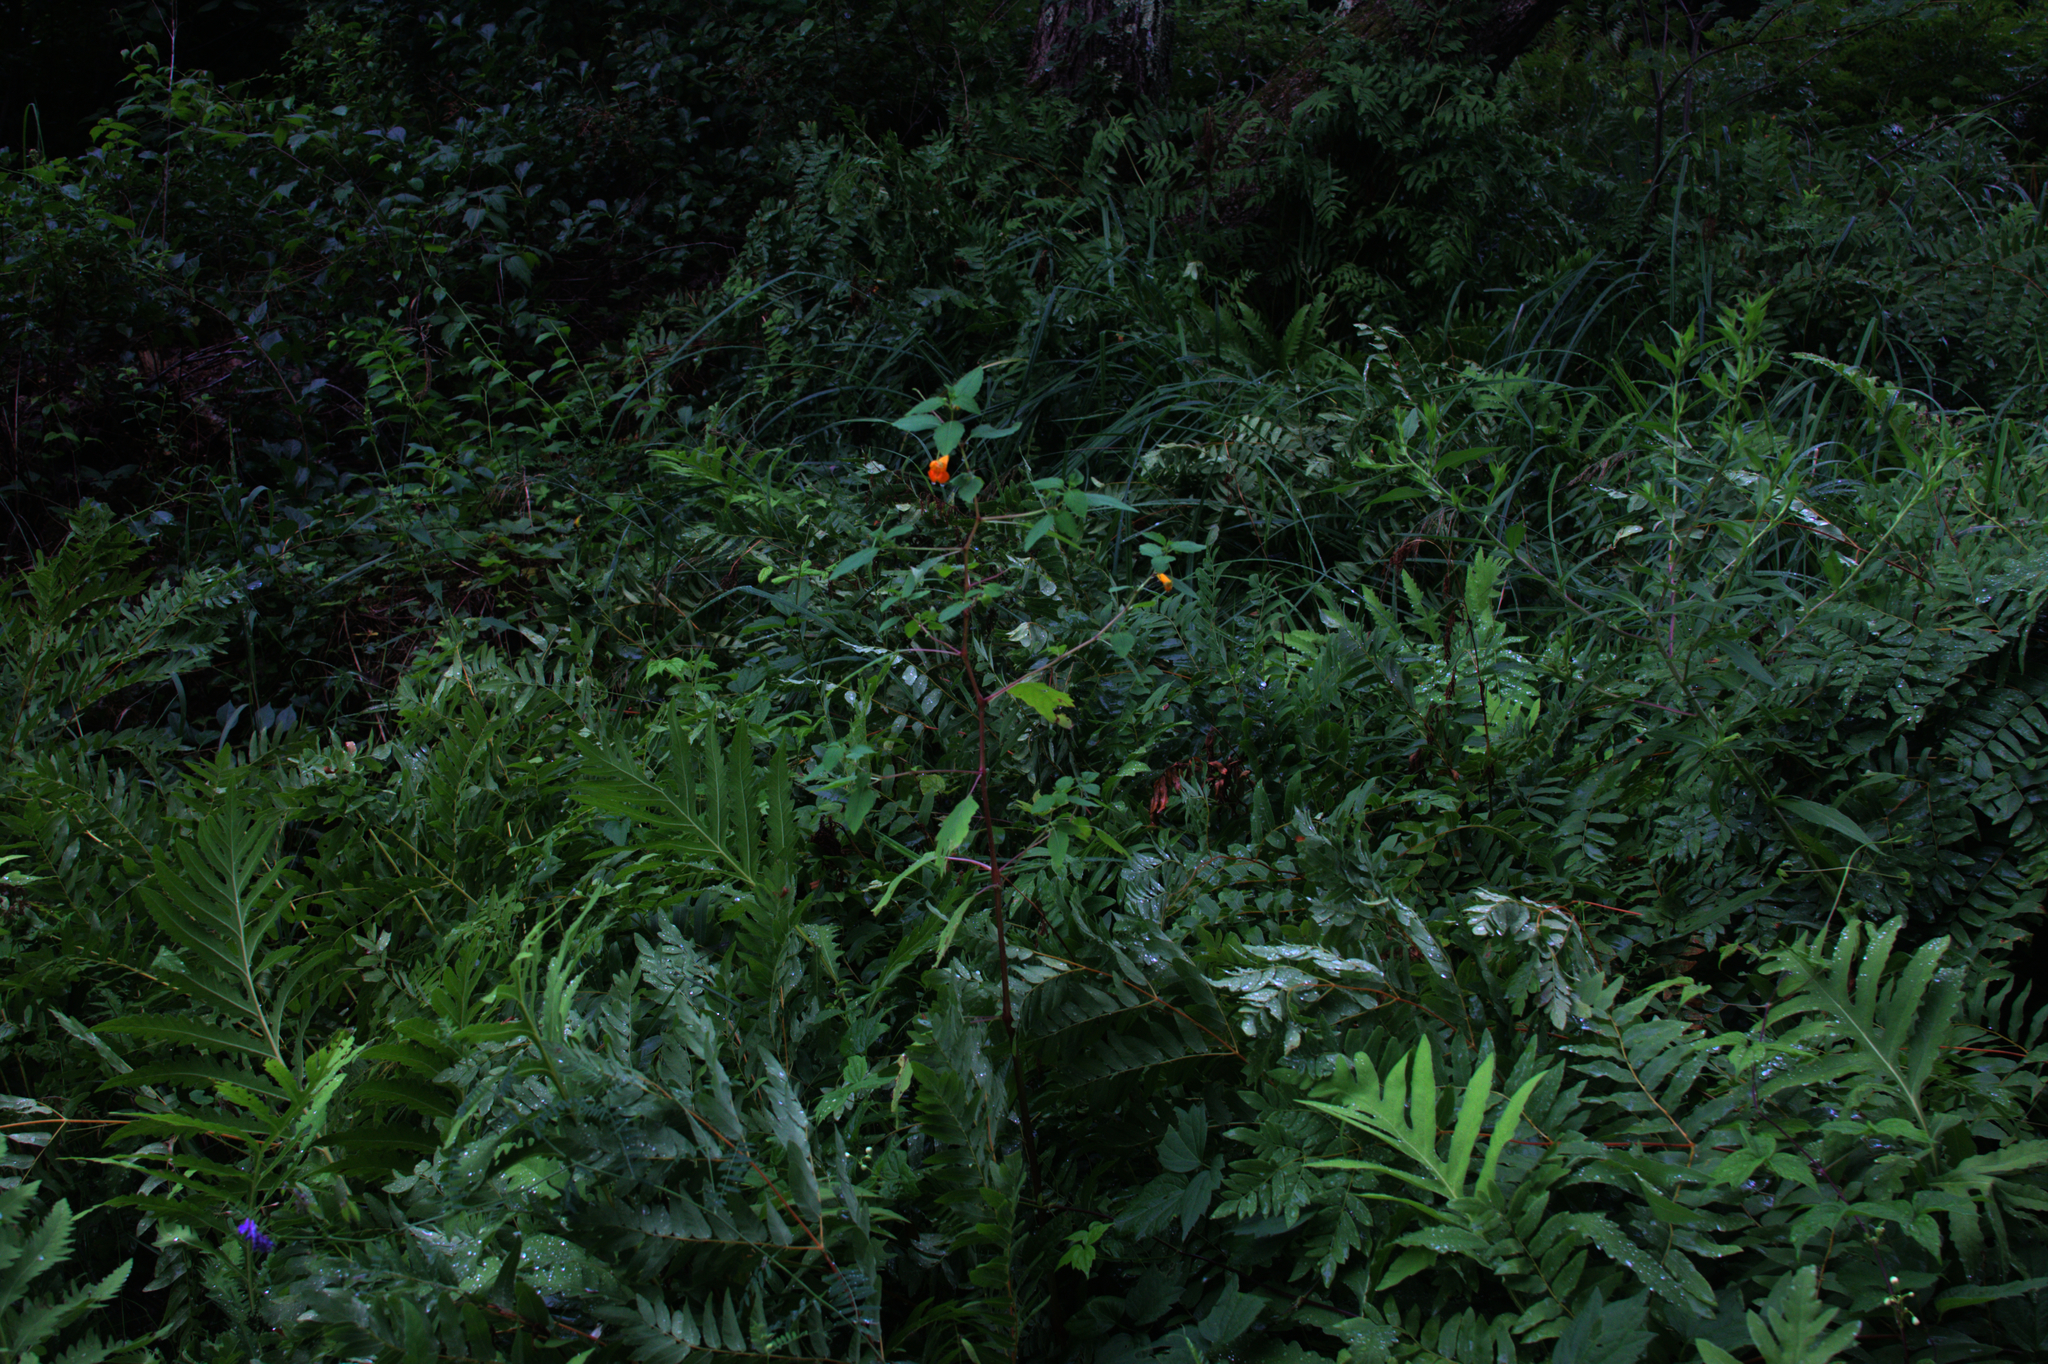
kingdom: Plantae
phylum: Tracheophyta
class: Polypodiopsida
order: Polypodiales
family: Onocleaceae
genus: Onoclea
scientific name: Onoclea sensibilis
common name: Sensitive fern
